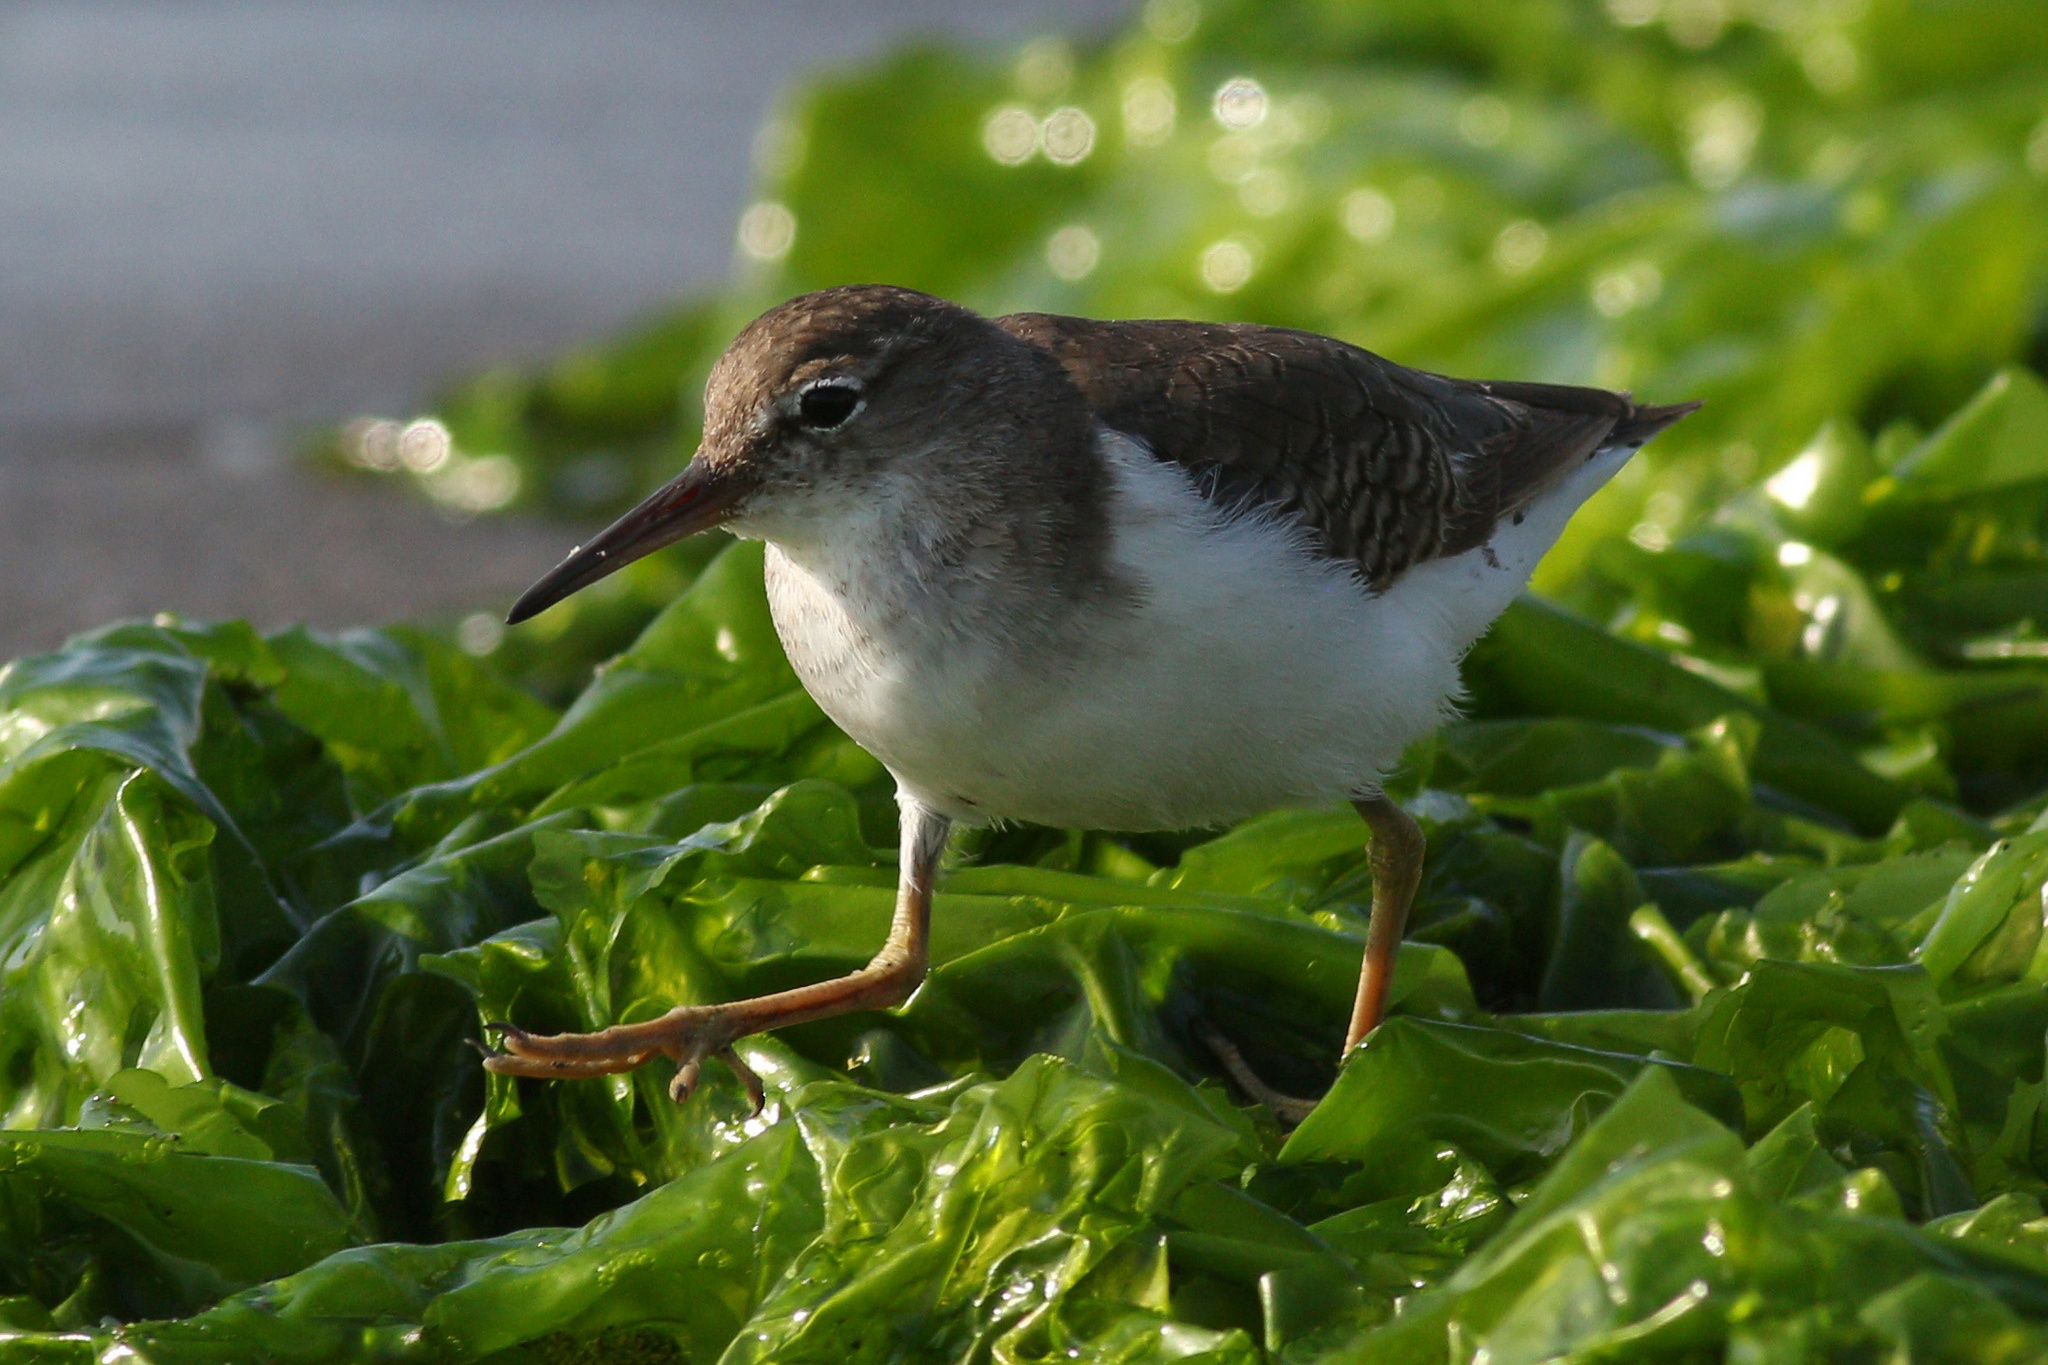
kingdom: Animalia
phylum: Chordata
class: Aves
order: Charadriiformes
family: Scolopacidae
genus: Actitis
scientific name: Actitis macularius
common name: Spotted sandpiper
